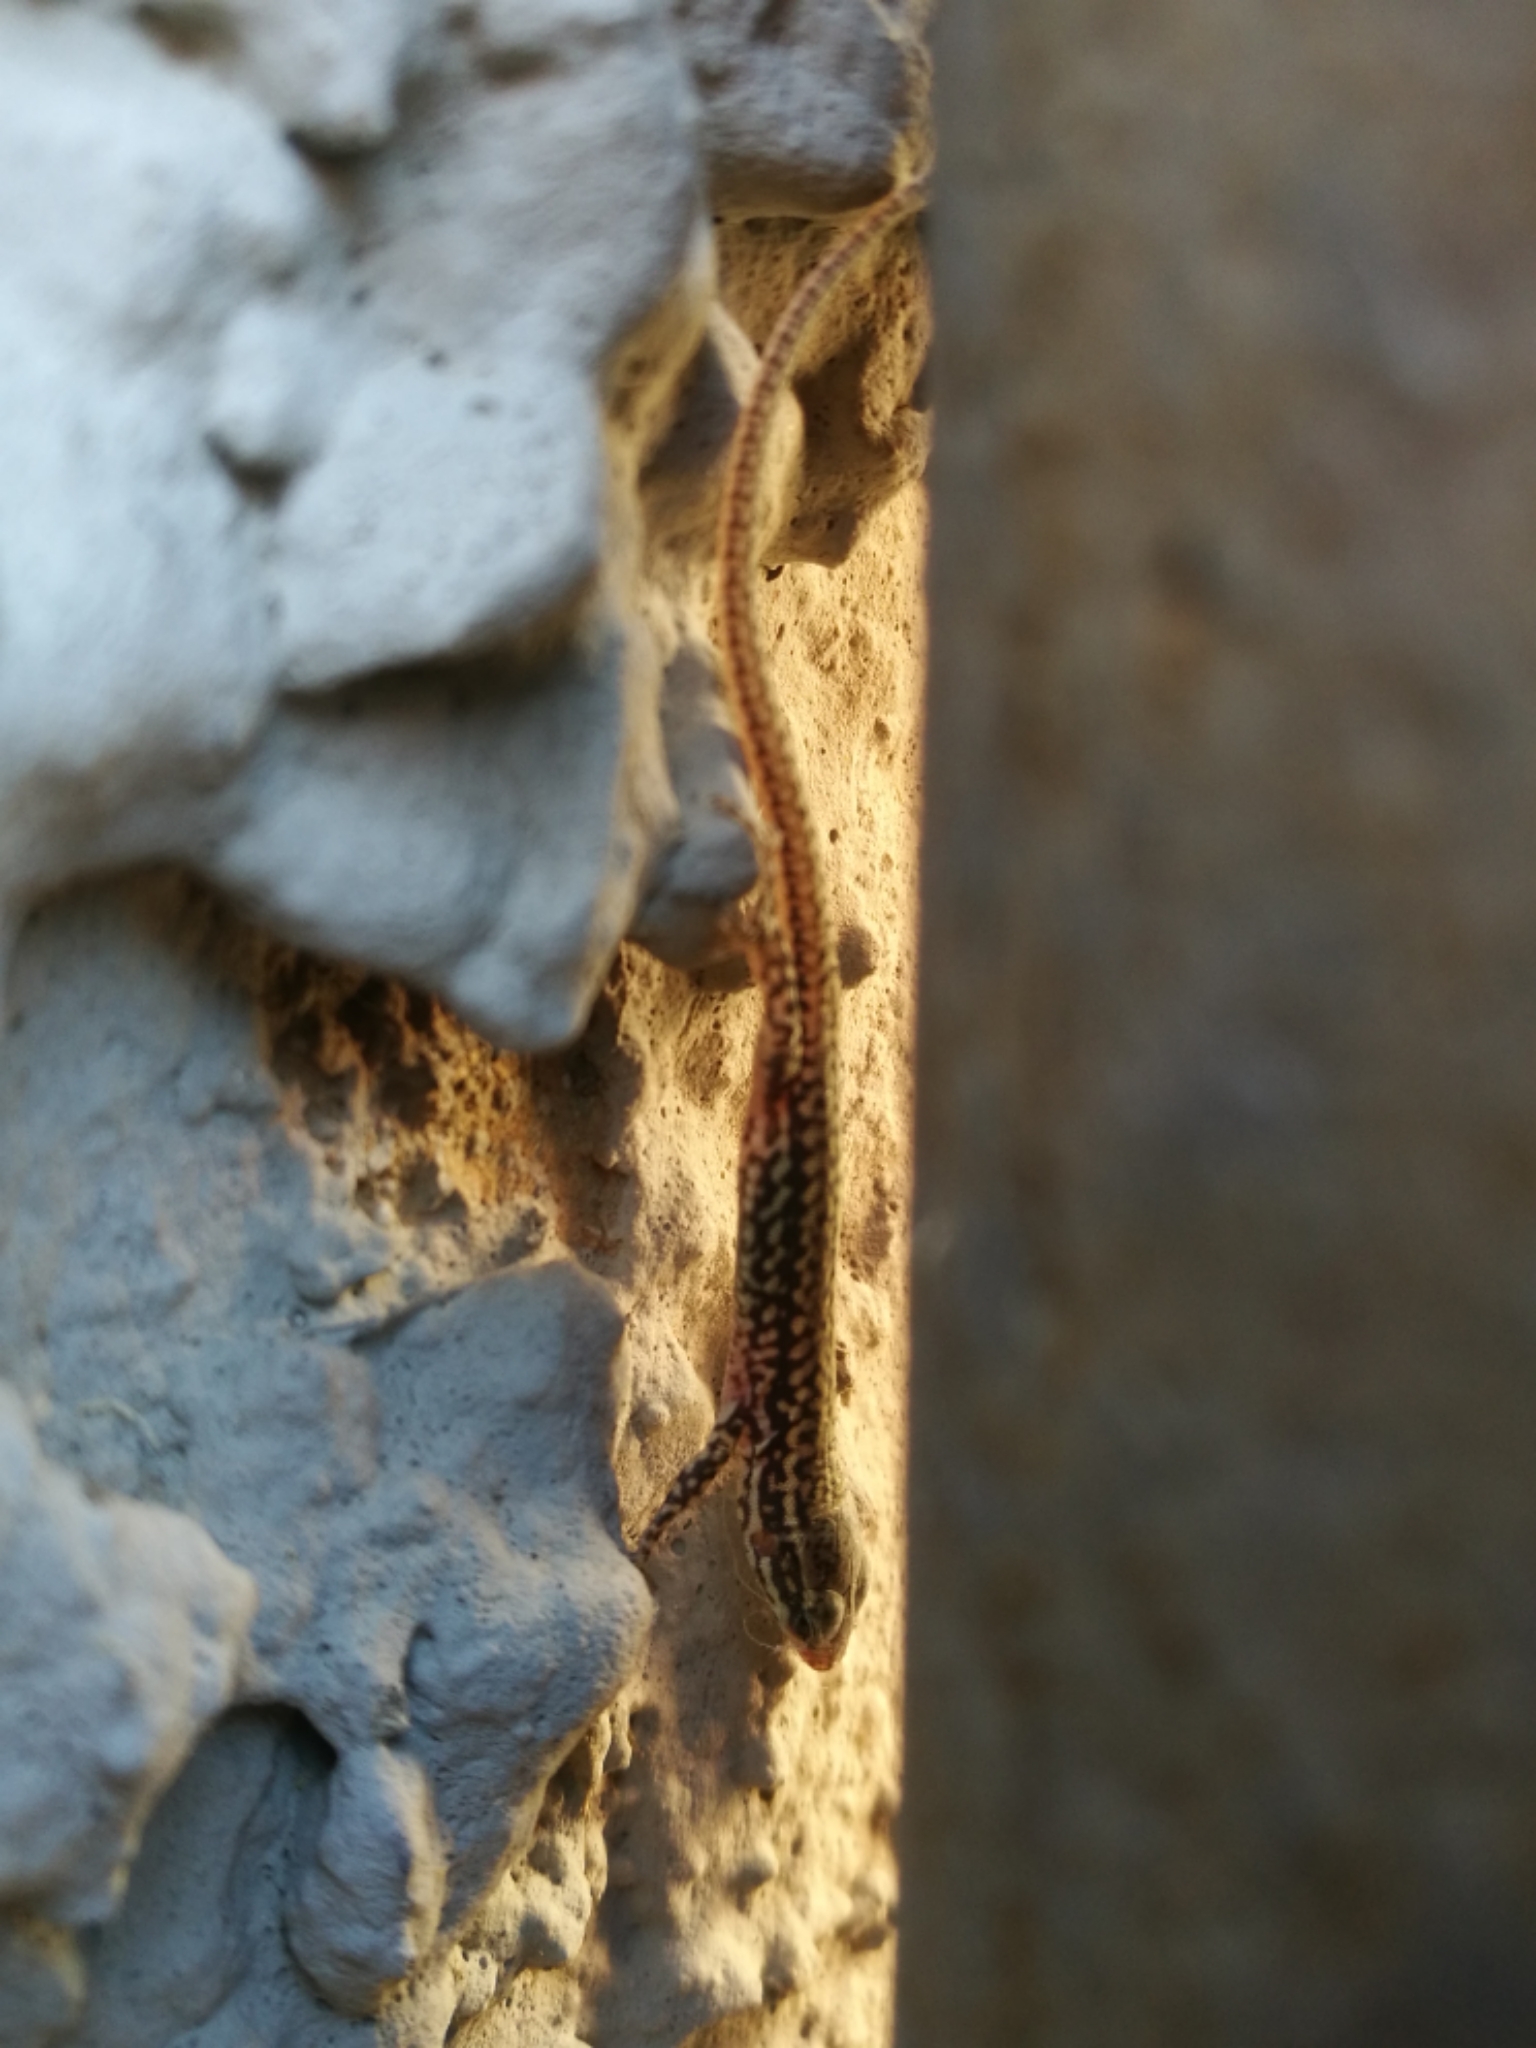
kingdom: Animalia
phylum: Chordata
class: Squamata
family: Lacertidae
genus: Podarcis
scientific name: Podarcis muralis
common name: Common wall lizard
